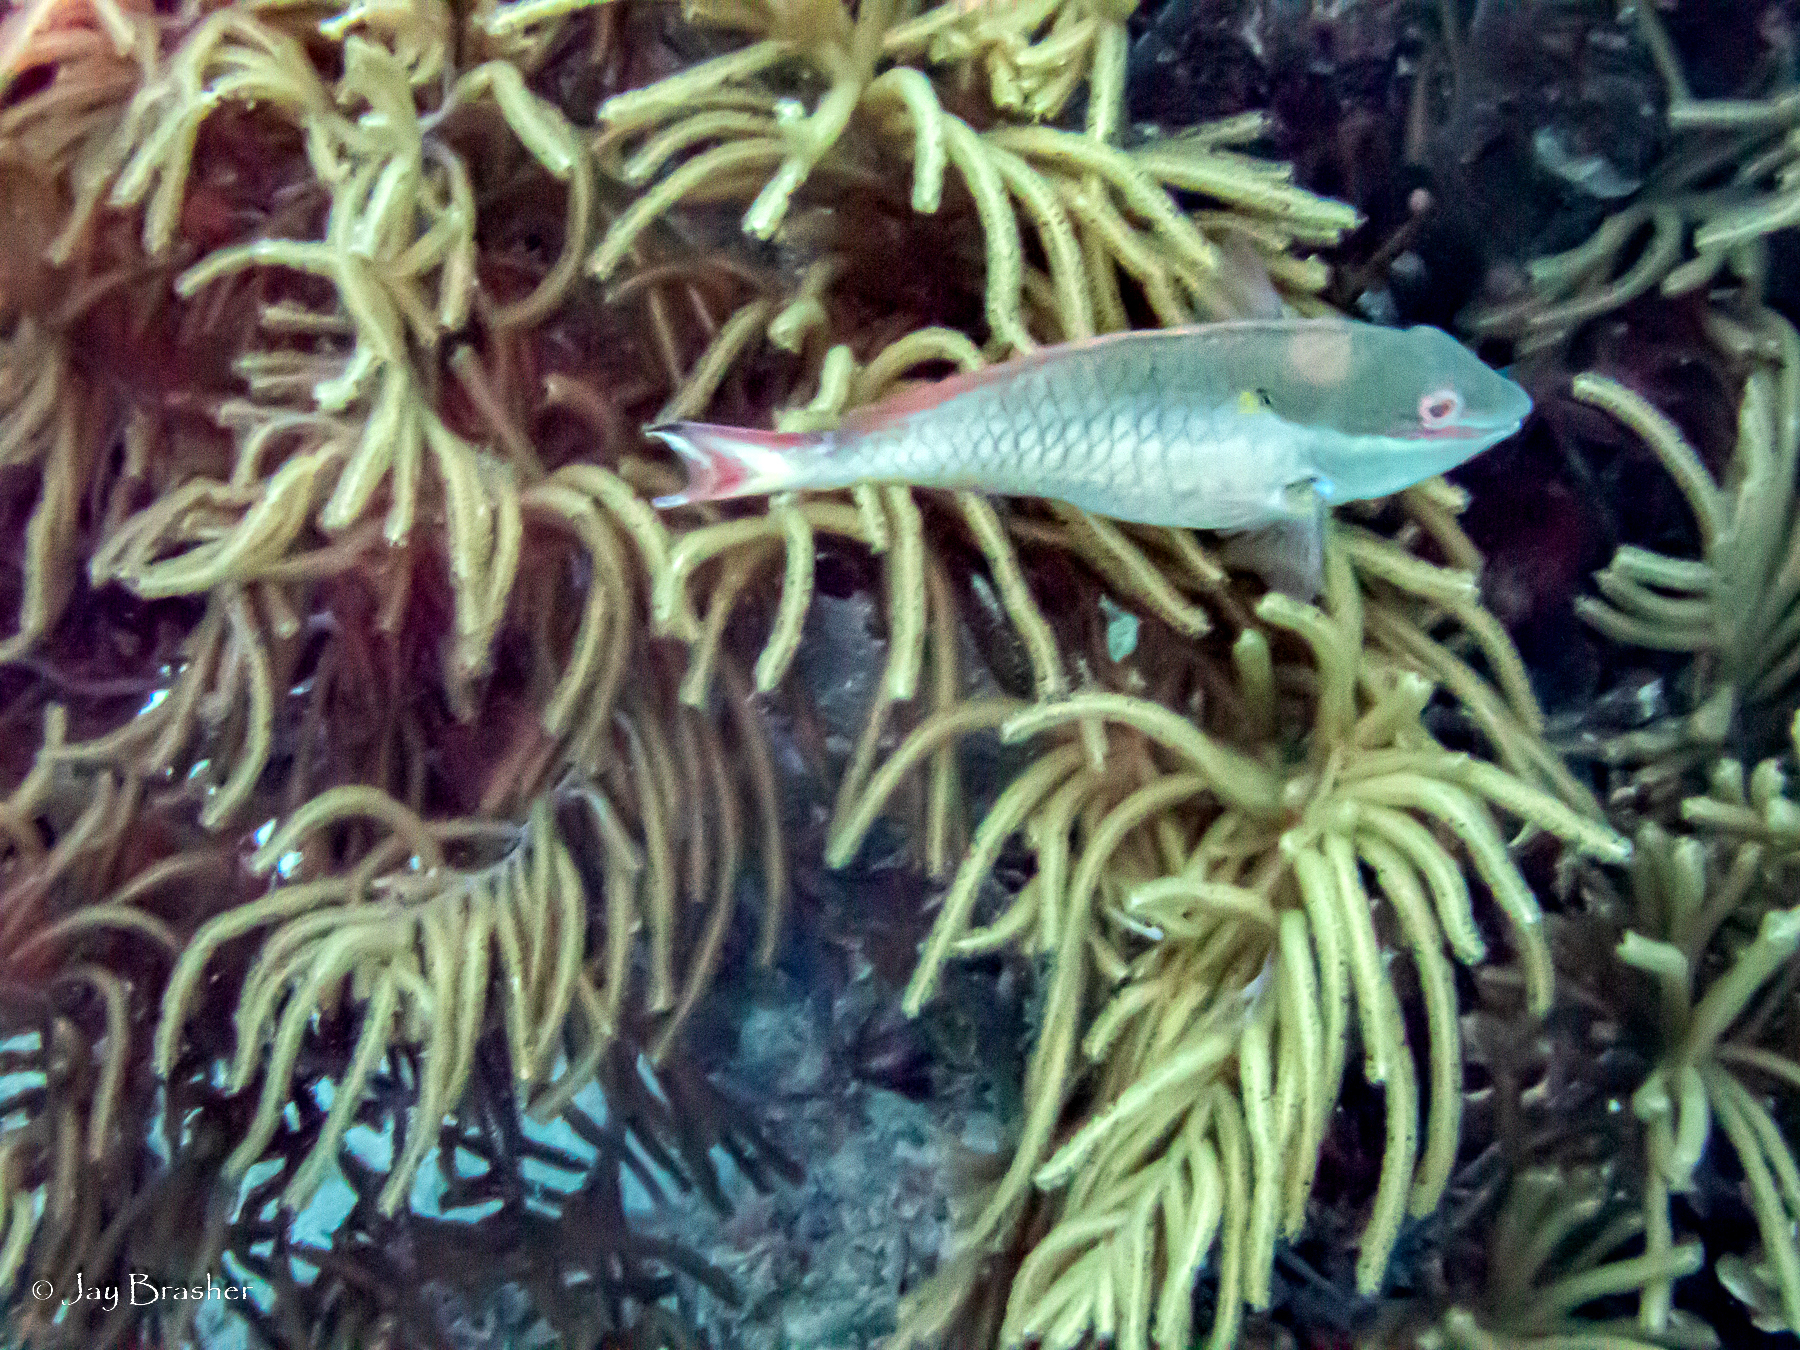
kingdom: Animalia
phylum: Chordata
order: Perciformes
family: Scaridae
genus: Sparisoma
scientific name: Sparisoma aurofrenatum
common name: Redband parrotfish
